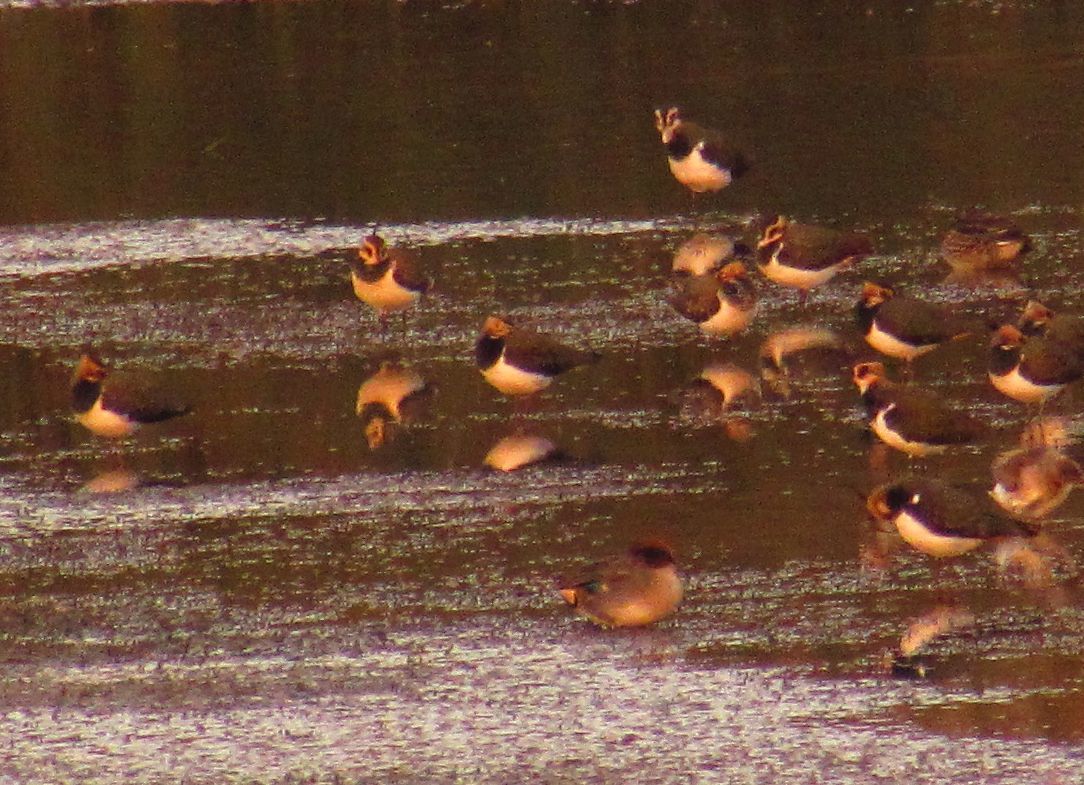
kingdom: Animalia
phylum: Chordata
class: Aves
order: Charadriiformes
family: Charadriidae
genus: Vanellus
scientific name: Vanellus vanellus
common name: Northern lapwing
